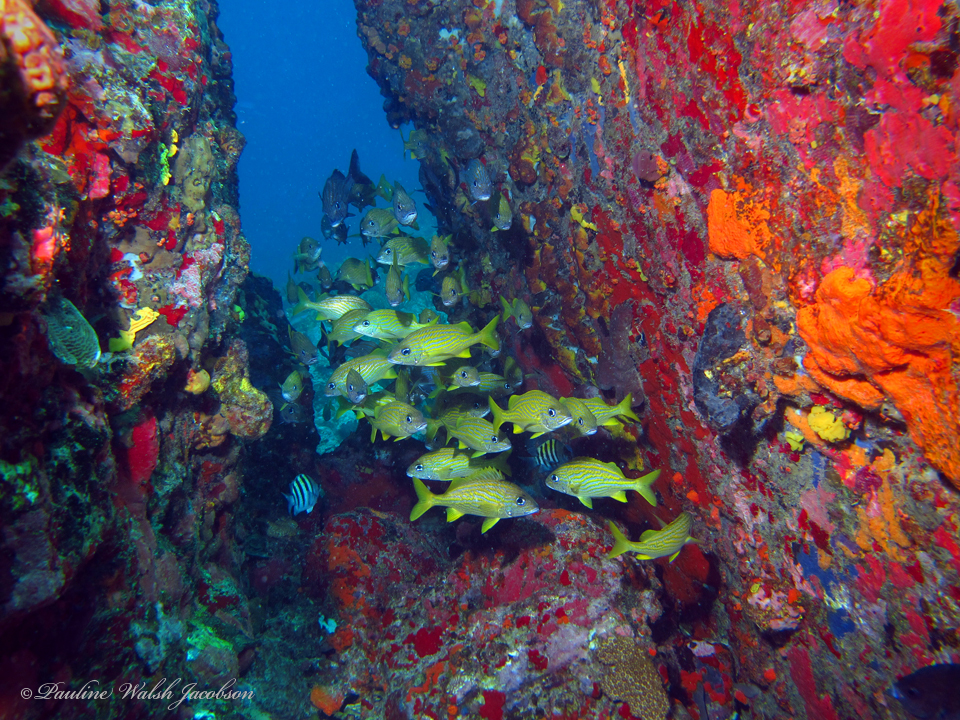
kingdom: Animalia
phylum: Chordata
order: Perciformes
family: Haemulidae
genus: Haemulon
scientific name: Haemulon flavolineatum
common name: French grunt
